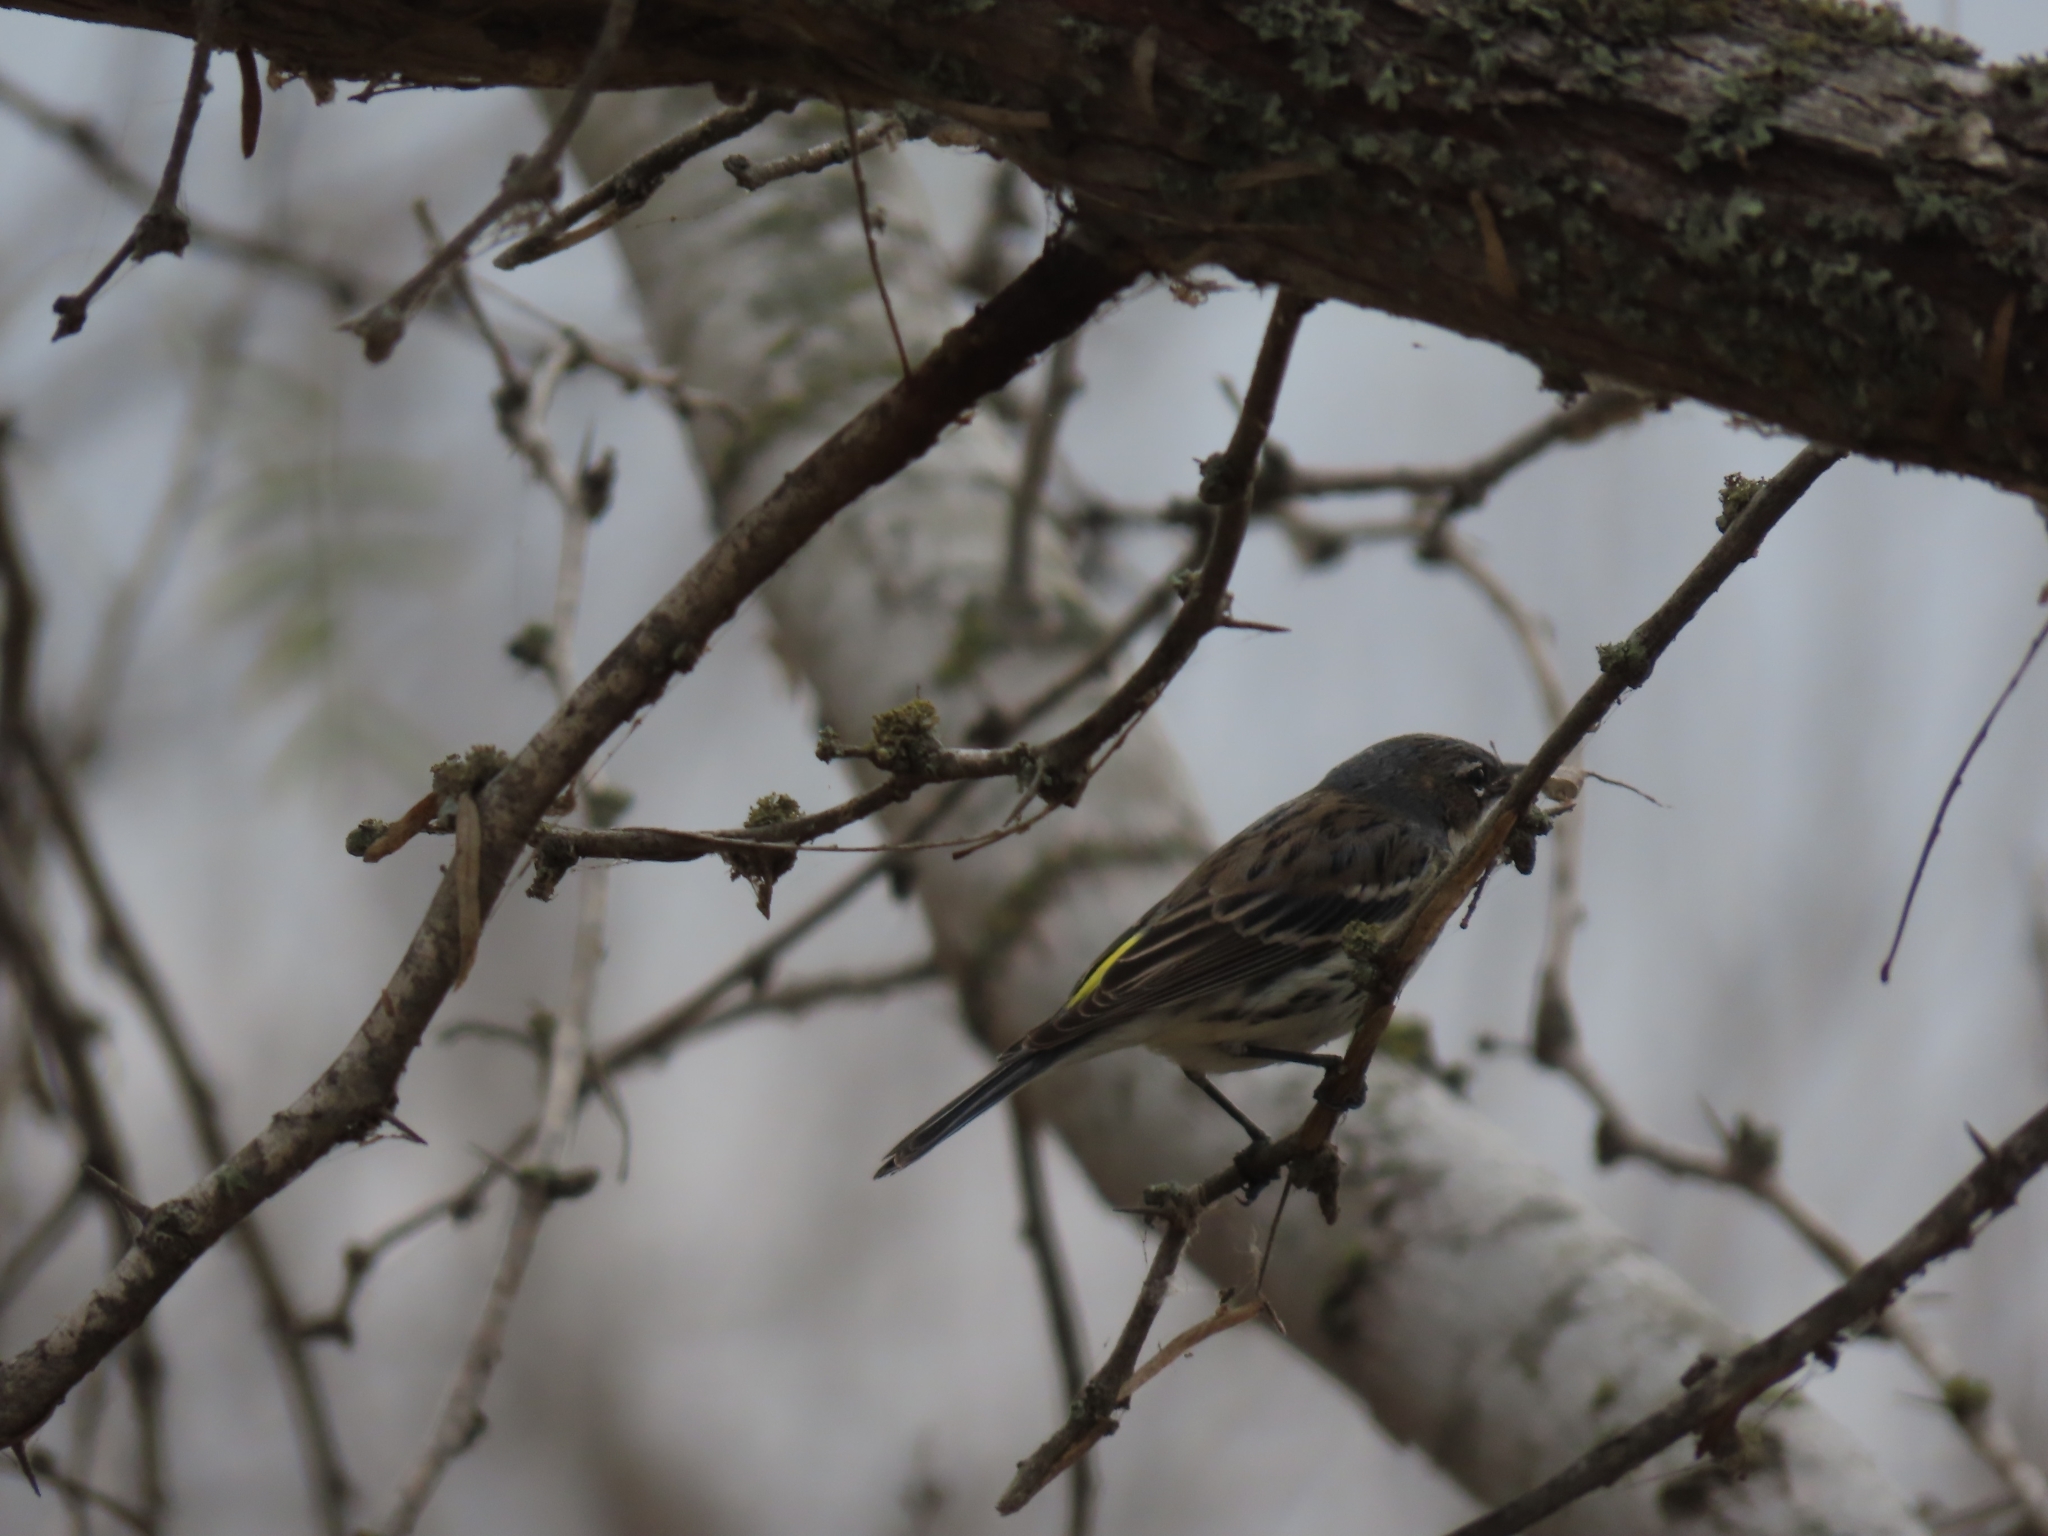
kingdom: Animalia
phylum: Chordata
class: Aves
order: Passeriformes
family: Parulidae
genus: Setophaga
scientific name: Setophaga coronata
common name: Myrtle warbler
